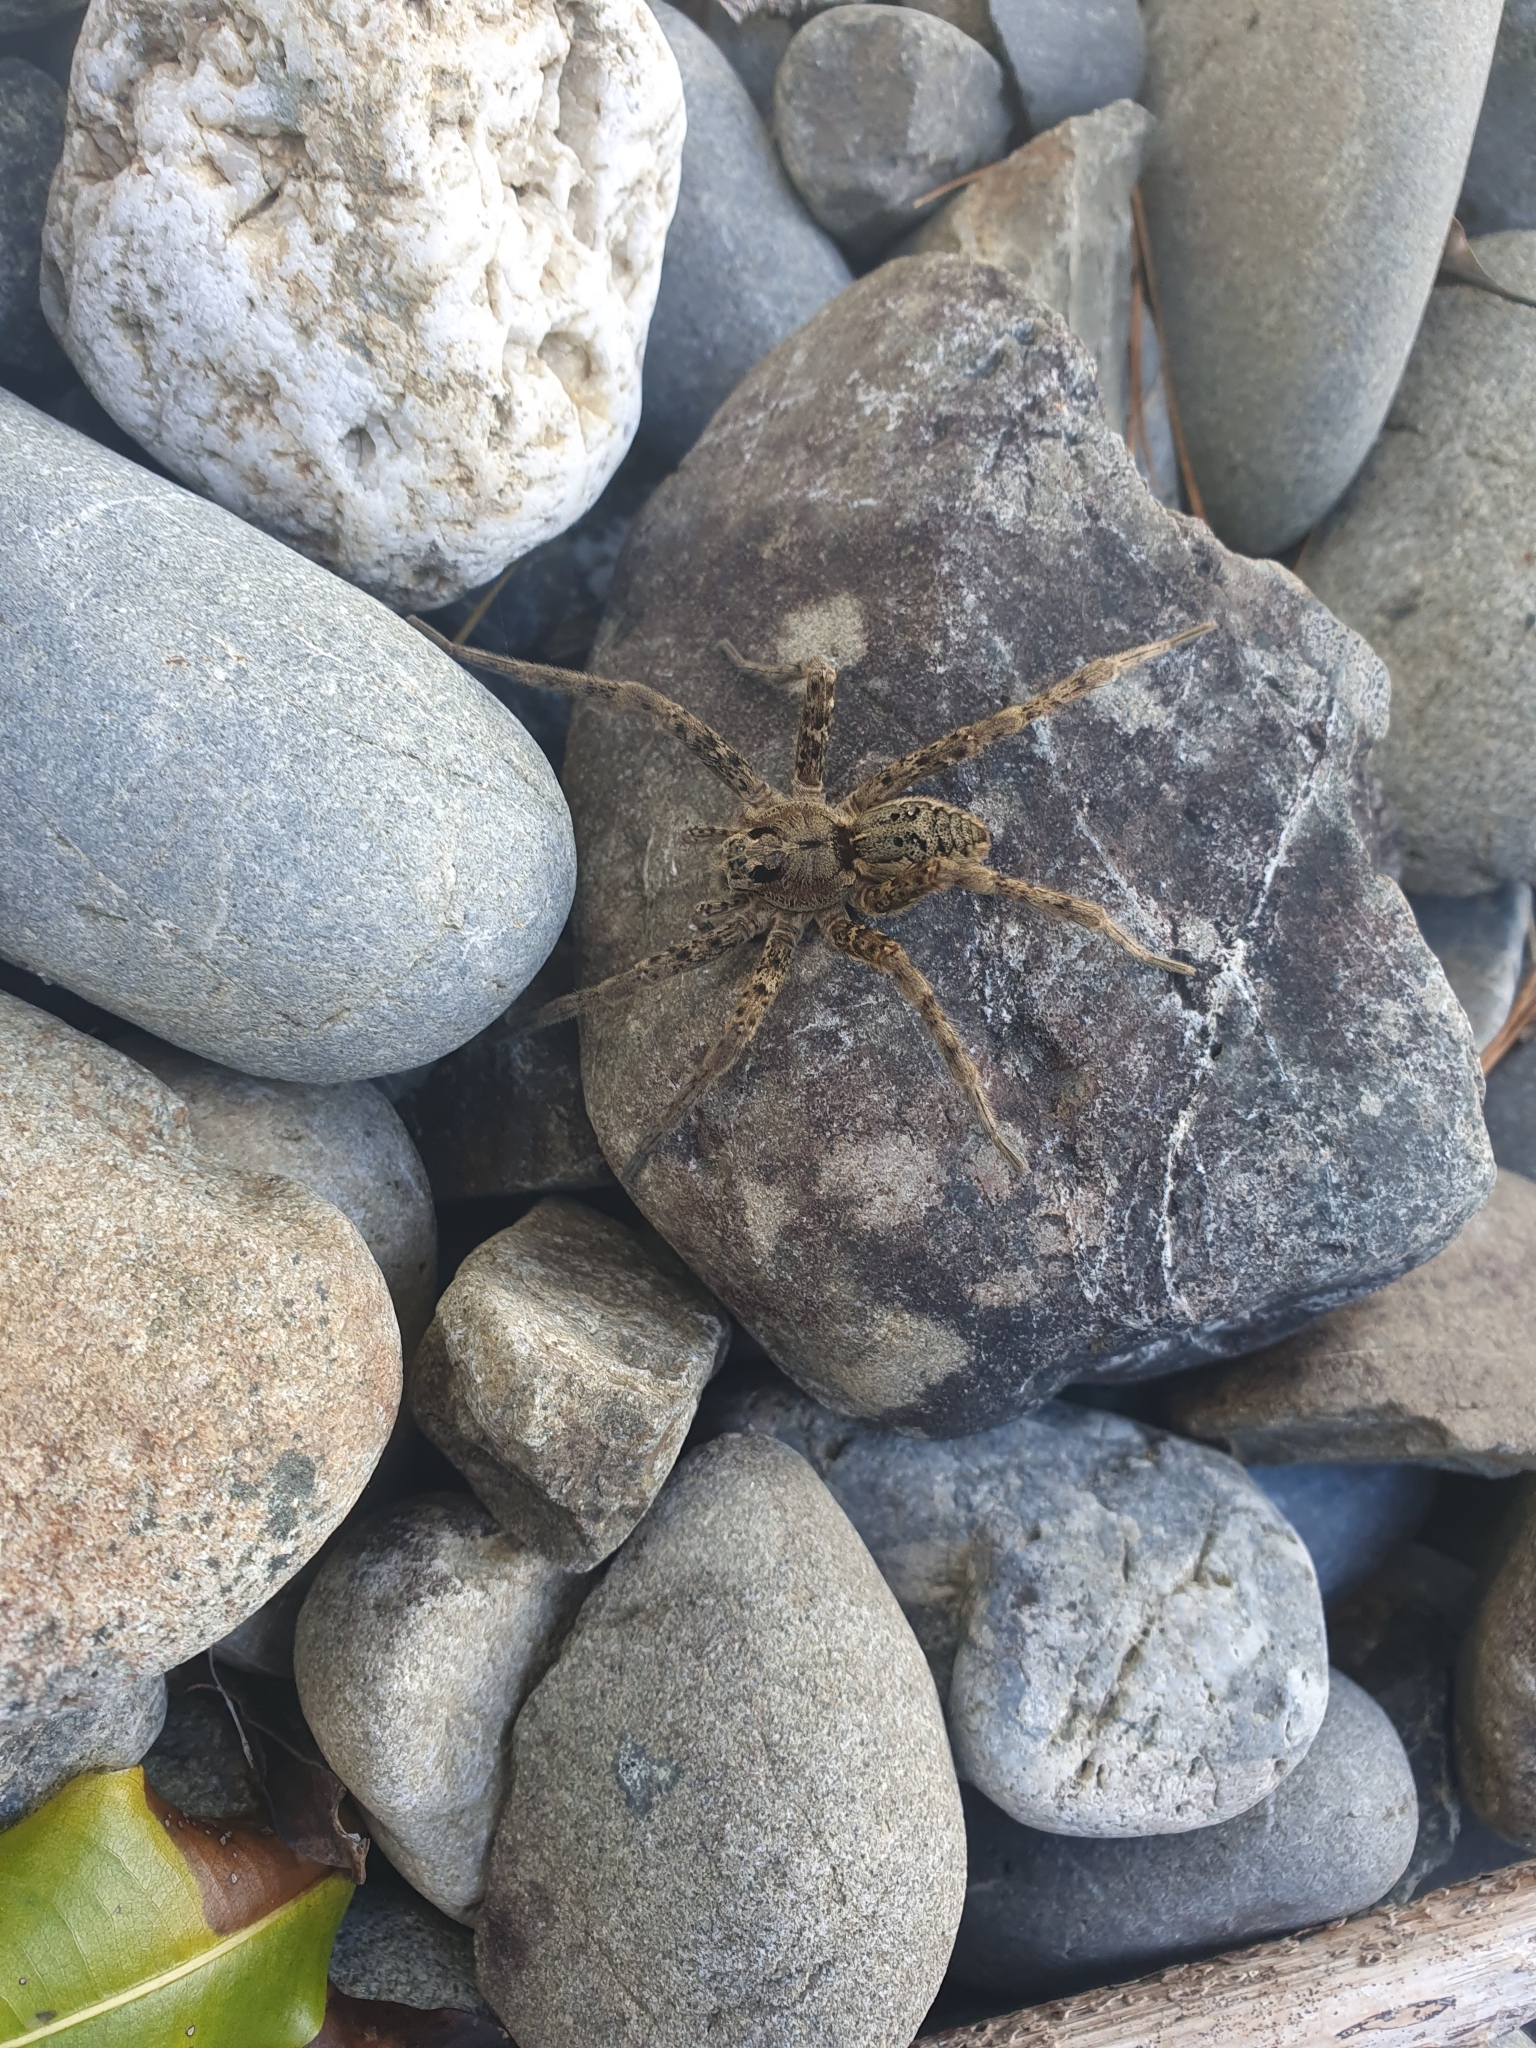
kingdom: Animalia
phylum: Arthropoda
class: Arachnida
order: Araneae
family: Pisauridae
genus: Dolomedes
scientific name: Dolomedes dondalei
